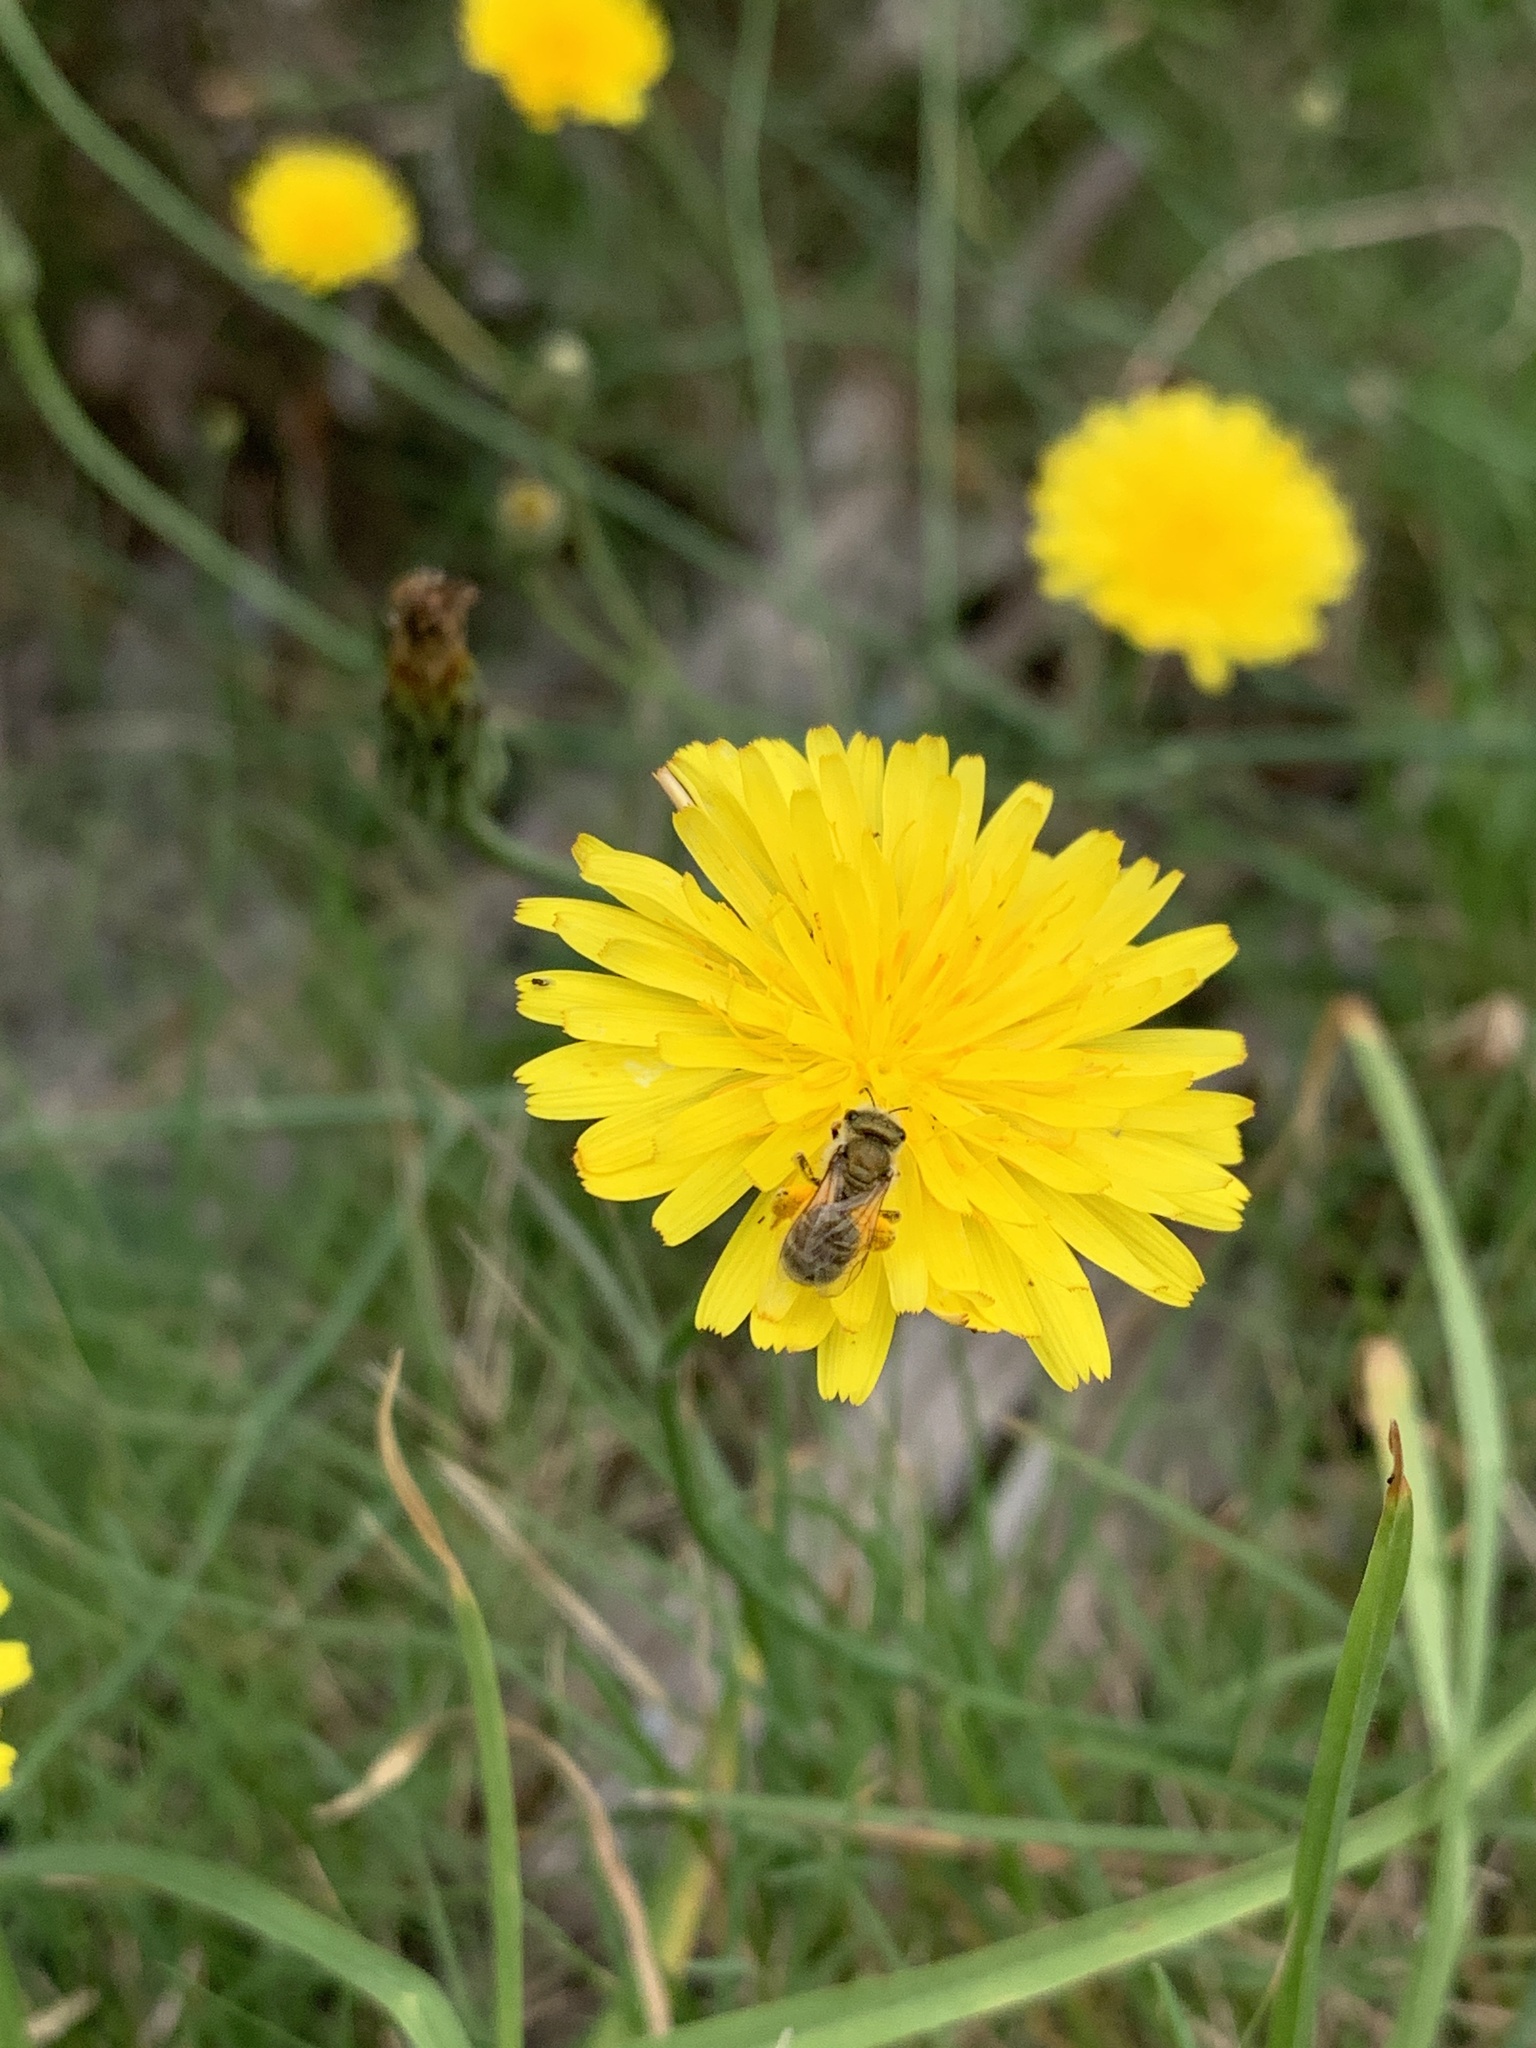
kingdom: Plantae
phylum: Tracheophyta
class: Magnoliopsida
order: Asterales
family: Asteraceae
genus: Hypochaeris
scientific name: Hypochaeris radicata
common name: Flatweed
